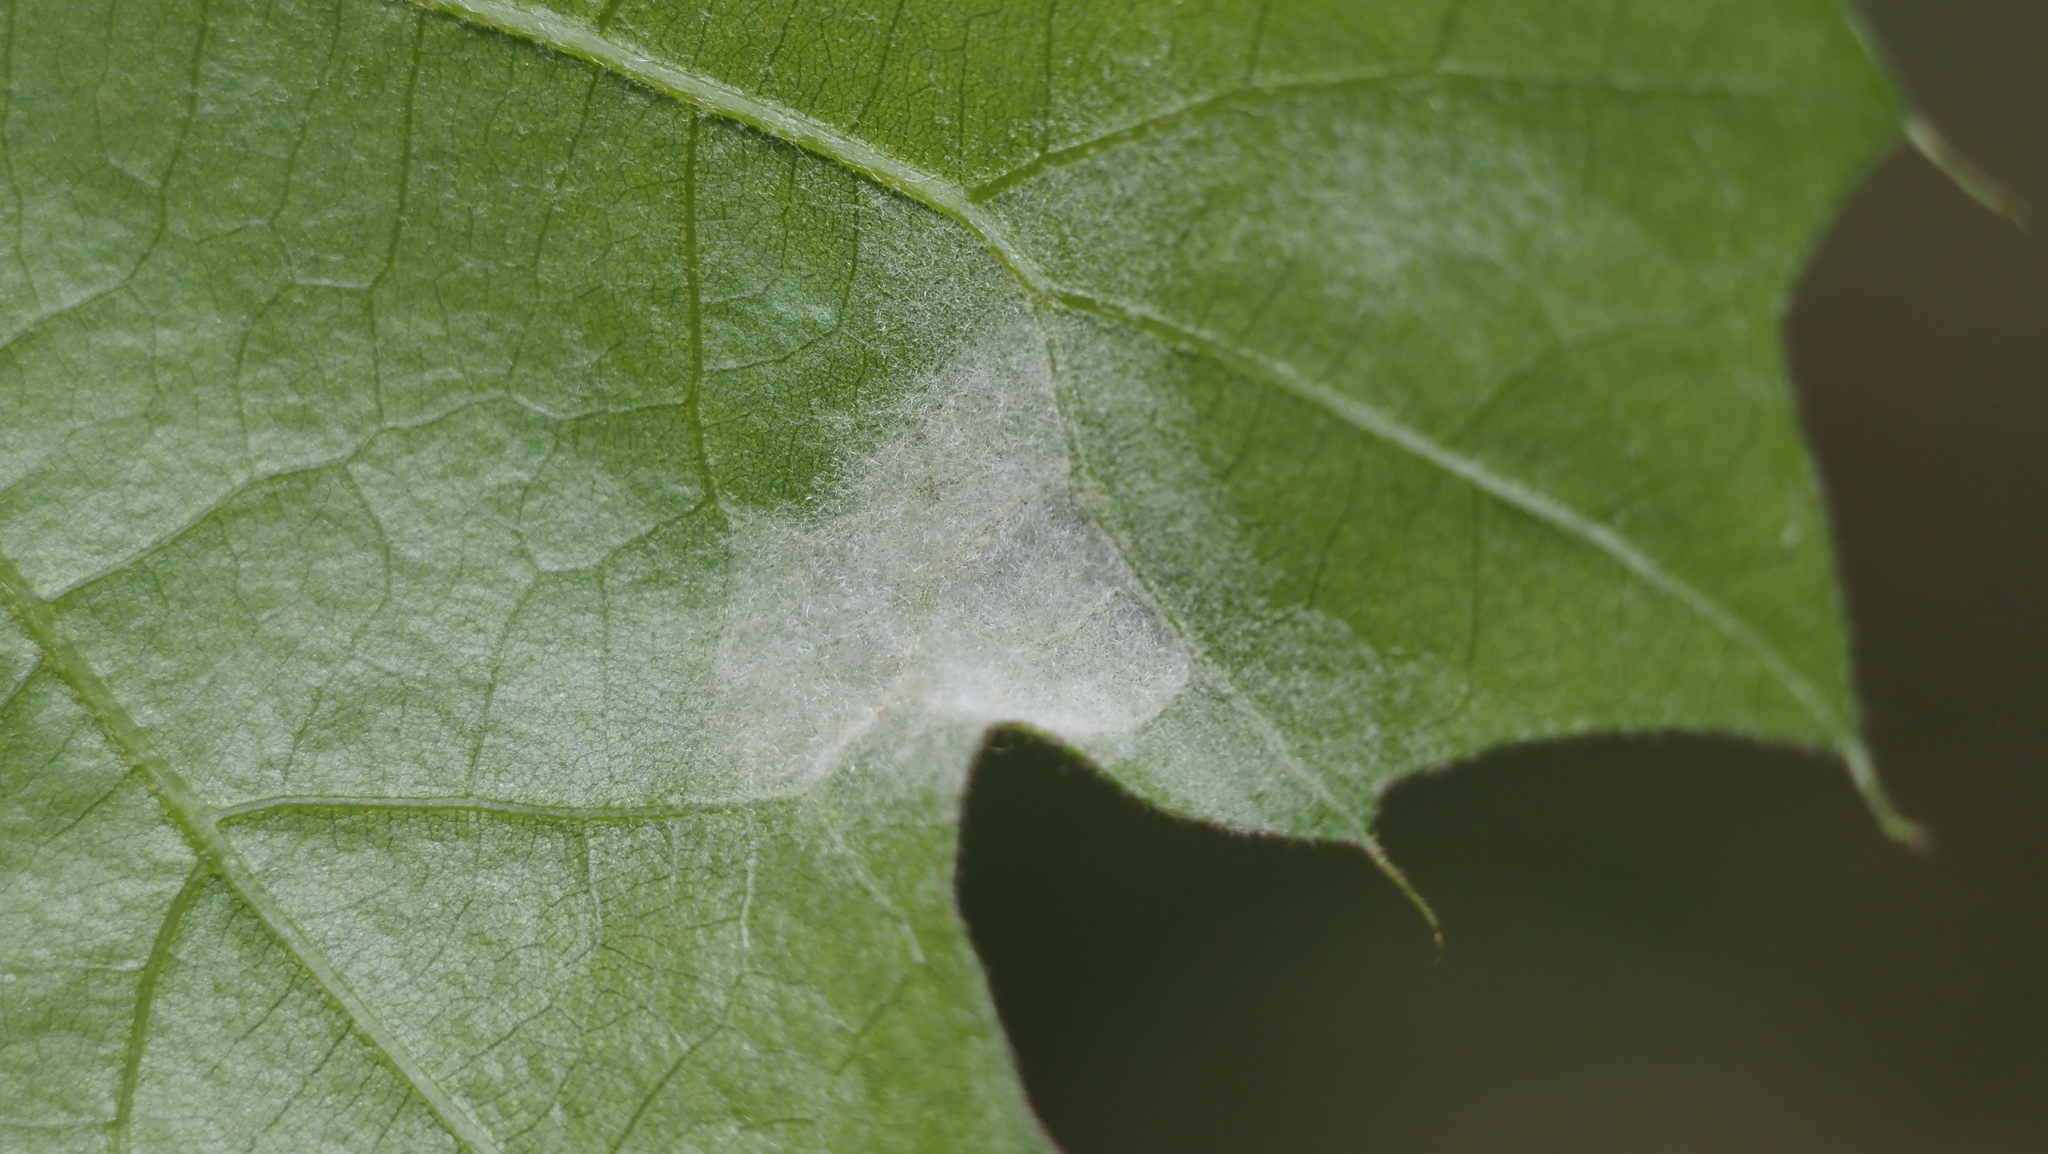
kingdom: Animalia
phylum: Arthropoda
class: Arachnida
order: Trombidiformes
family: Eriophyidae
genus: Aceria
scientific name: Aceria
